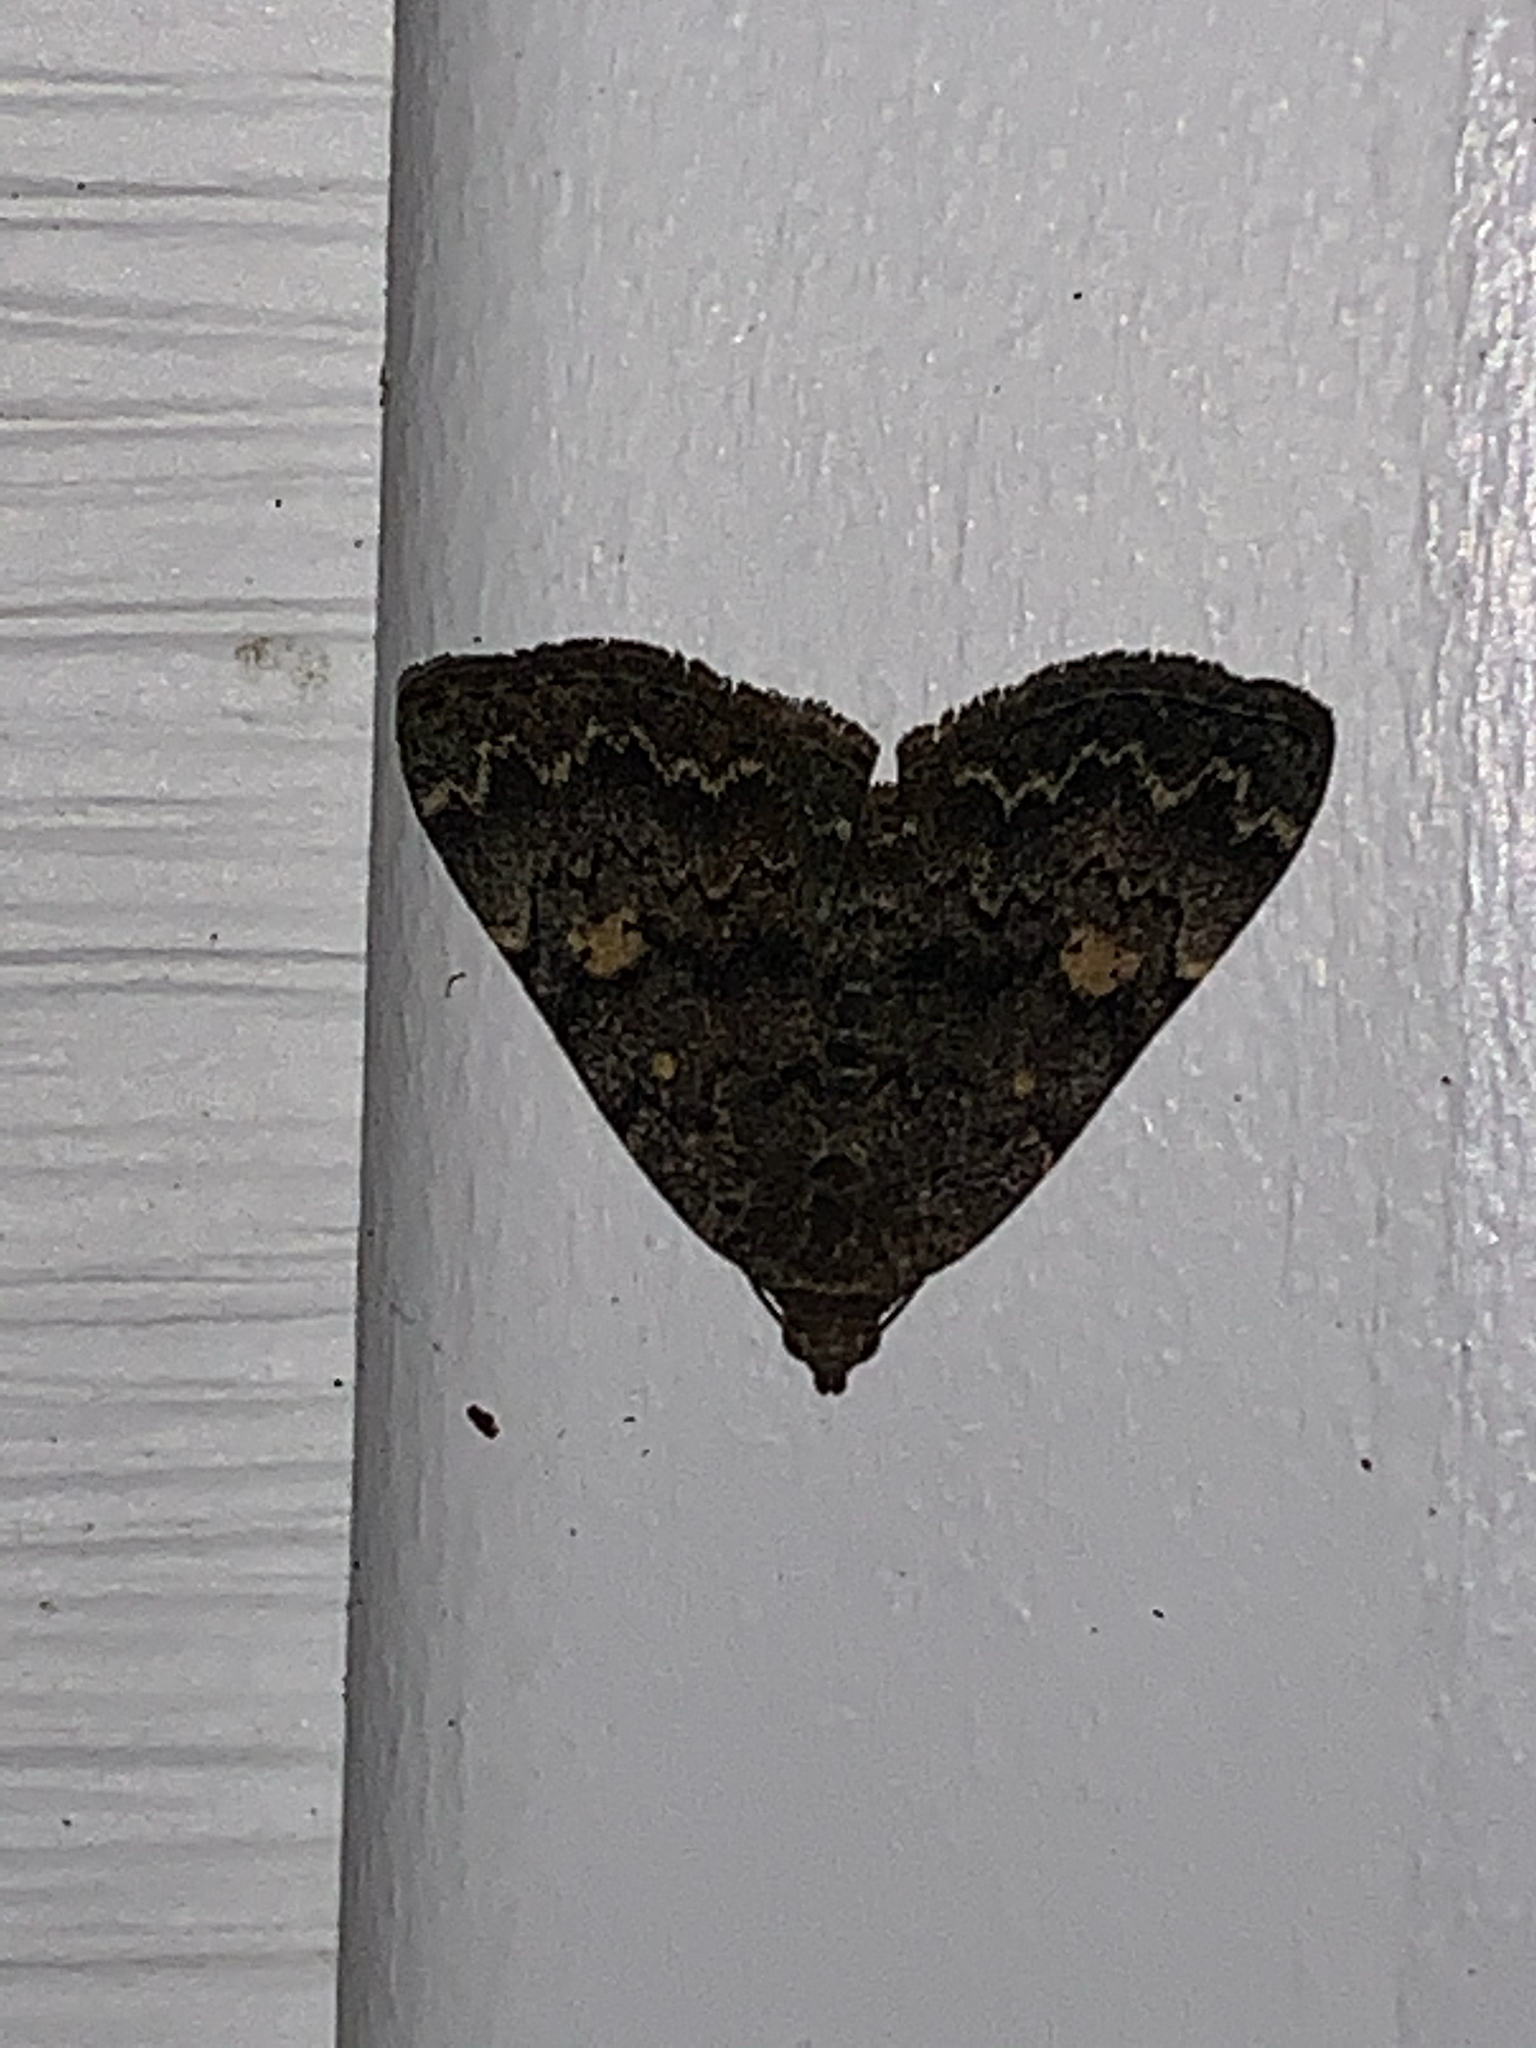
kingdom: Animalia
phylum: Arthropoda
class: Insecta
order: Lepidoptera
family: Erebidae
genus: Idia
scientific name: Idia aemula
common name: Common idia moth
